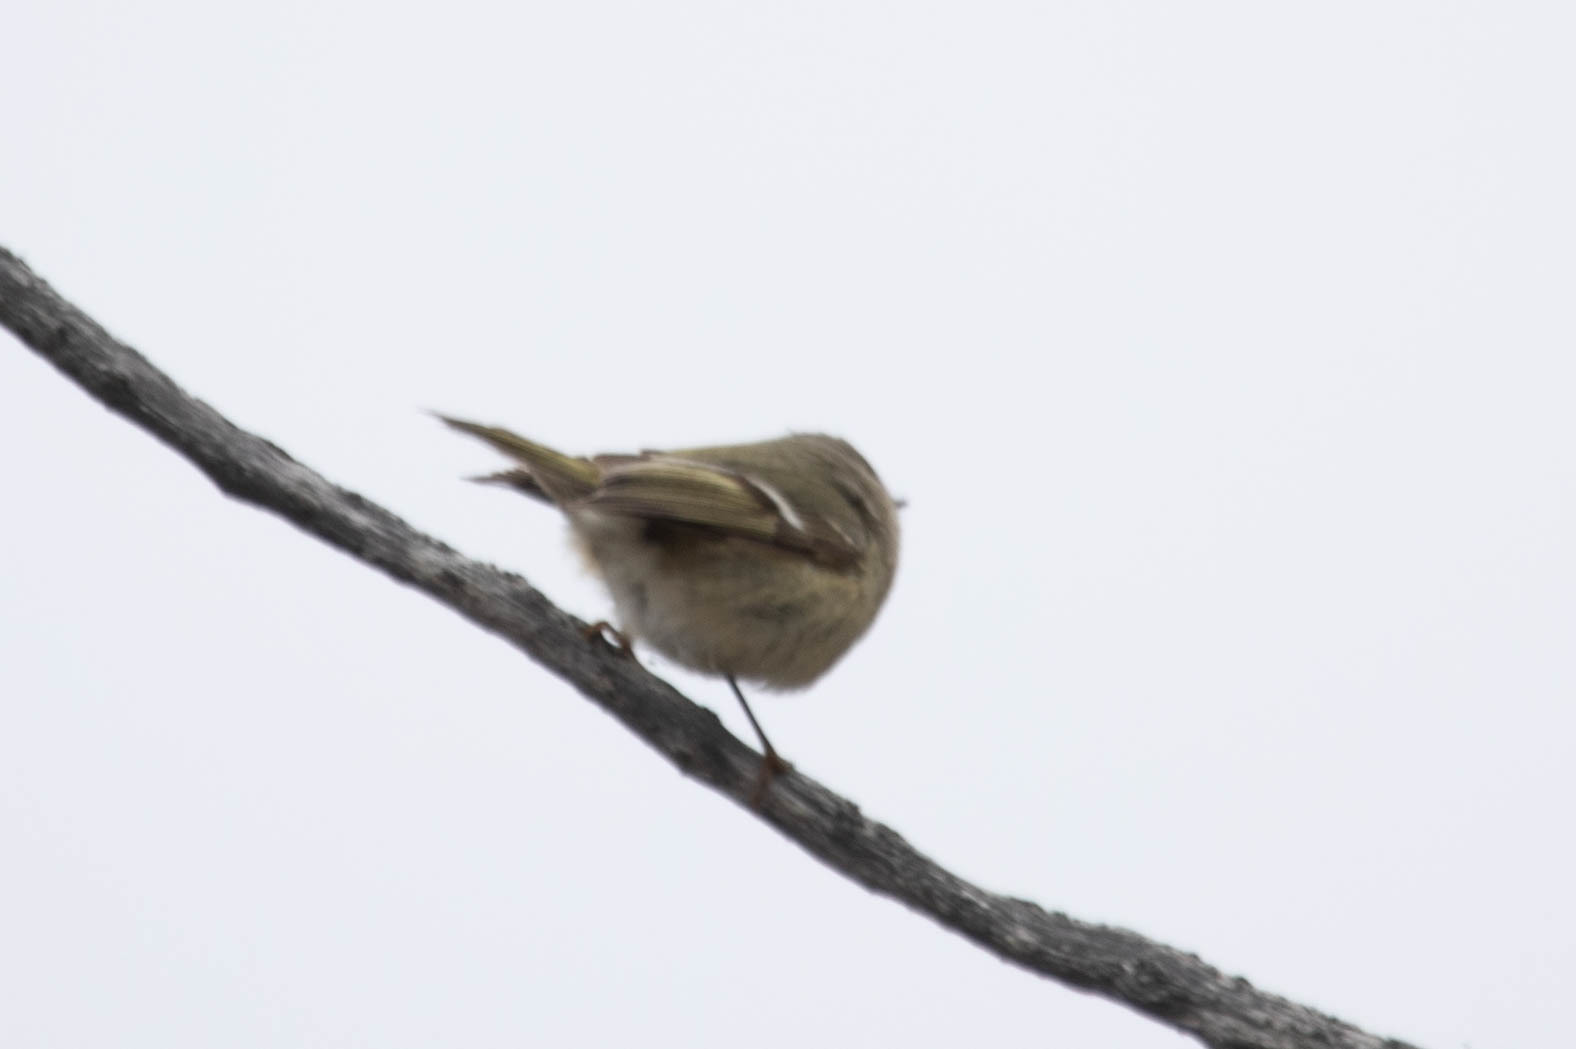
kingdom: Animalia
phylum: Chordata
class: Aves
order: Passeriformes
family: Regulidae
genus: Regulus
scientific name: Regulus calendula
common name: Ruby-crowned kinglet
